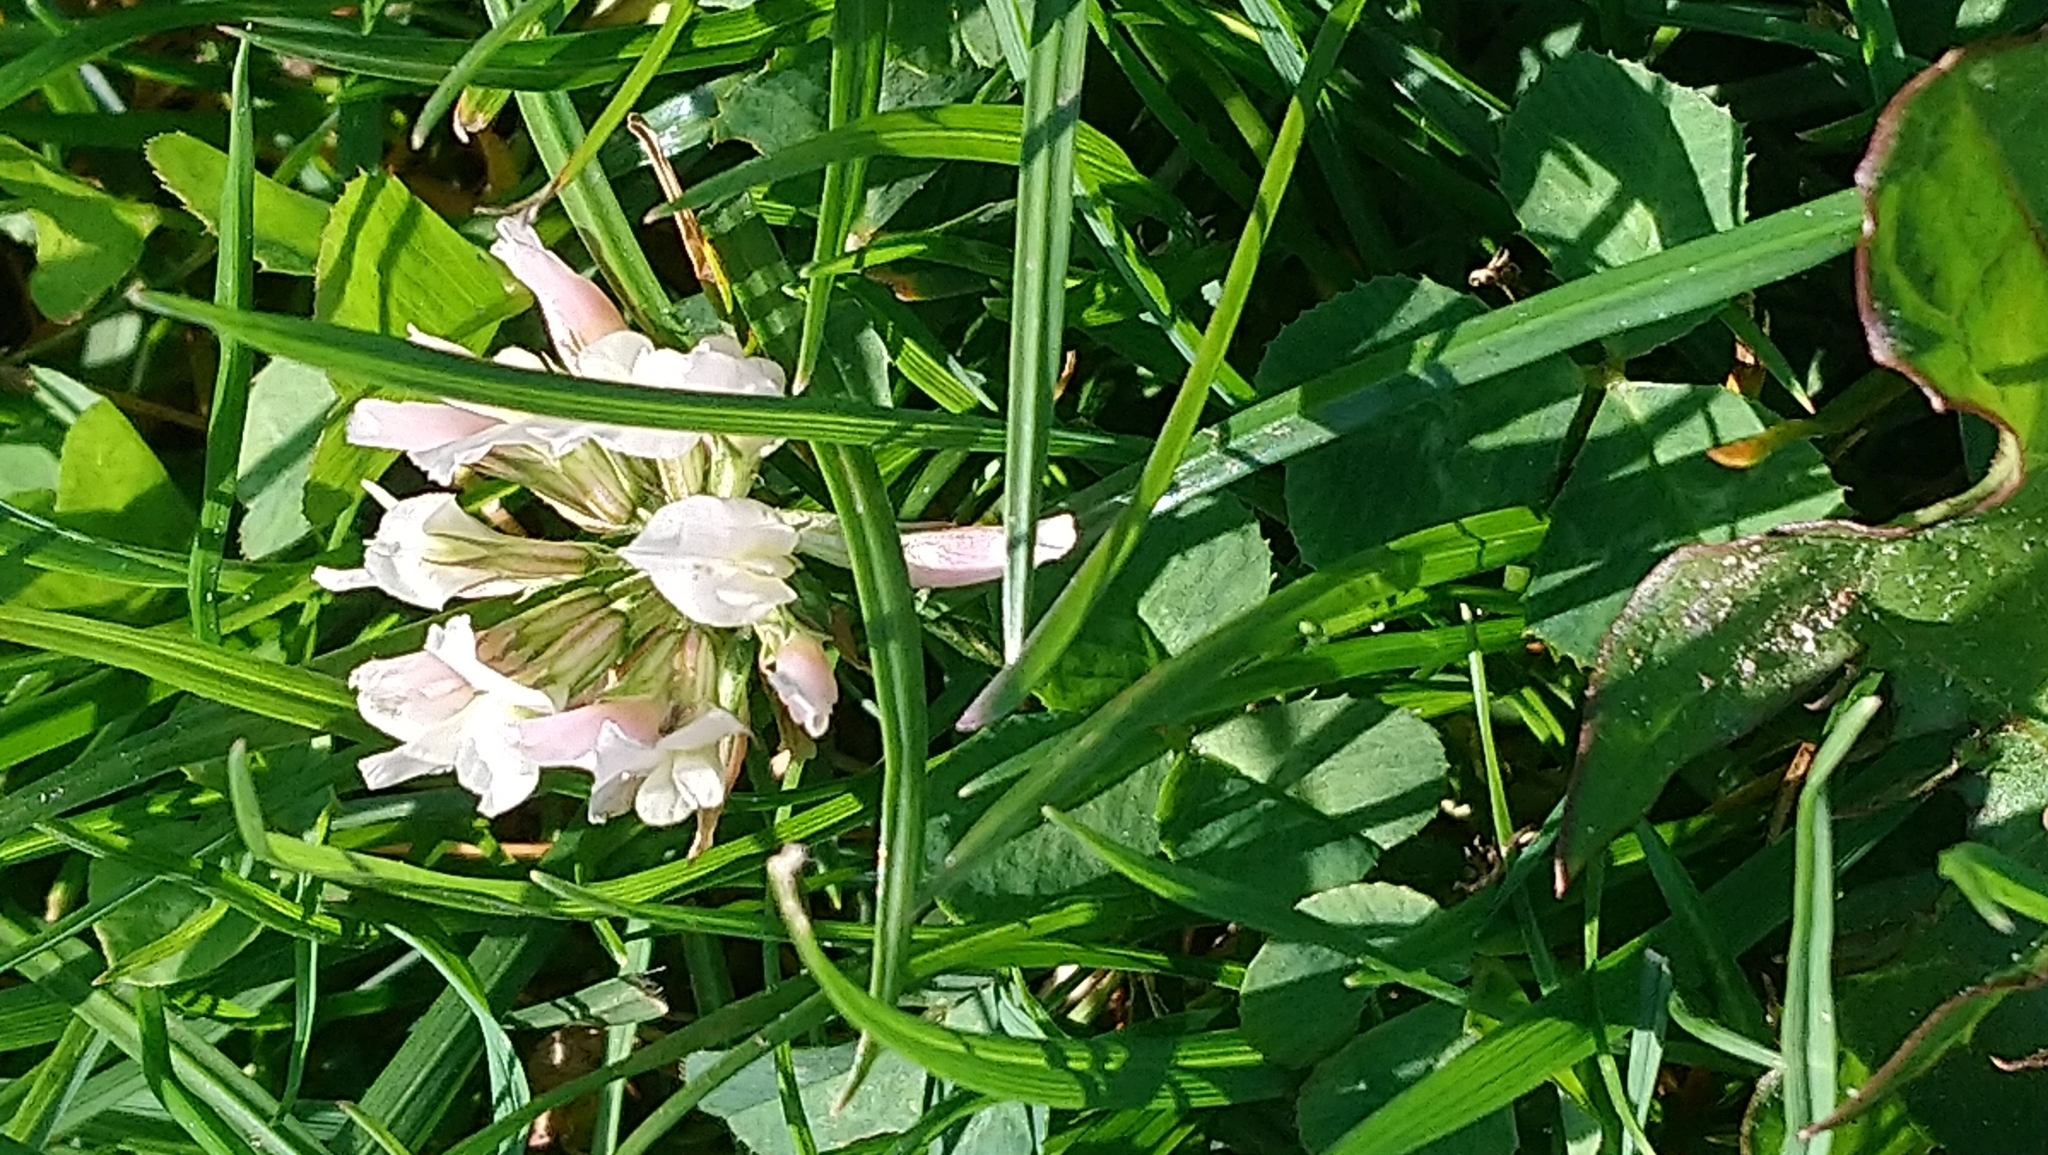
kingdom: Plantae
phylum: Tracheophyta
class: Magnoliopsida
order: Fabales
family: Fabaceae
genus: Trifolium
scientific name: Trifolium repens
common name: White clover
